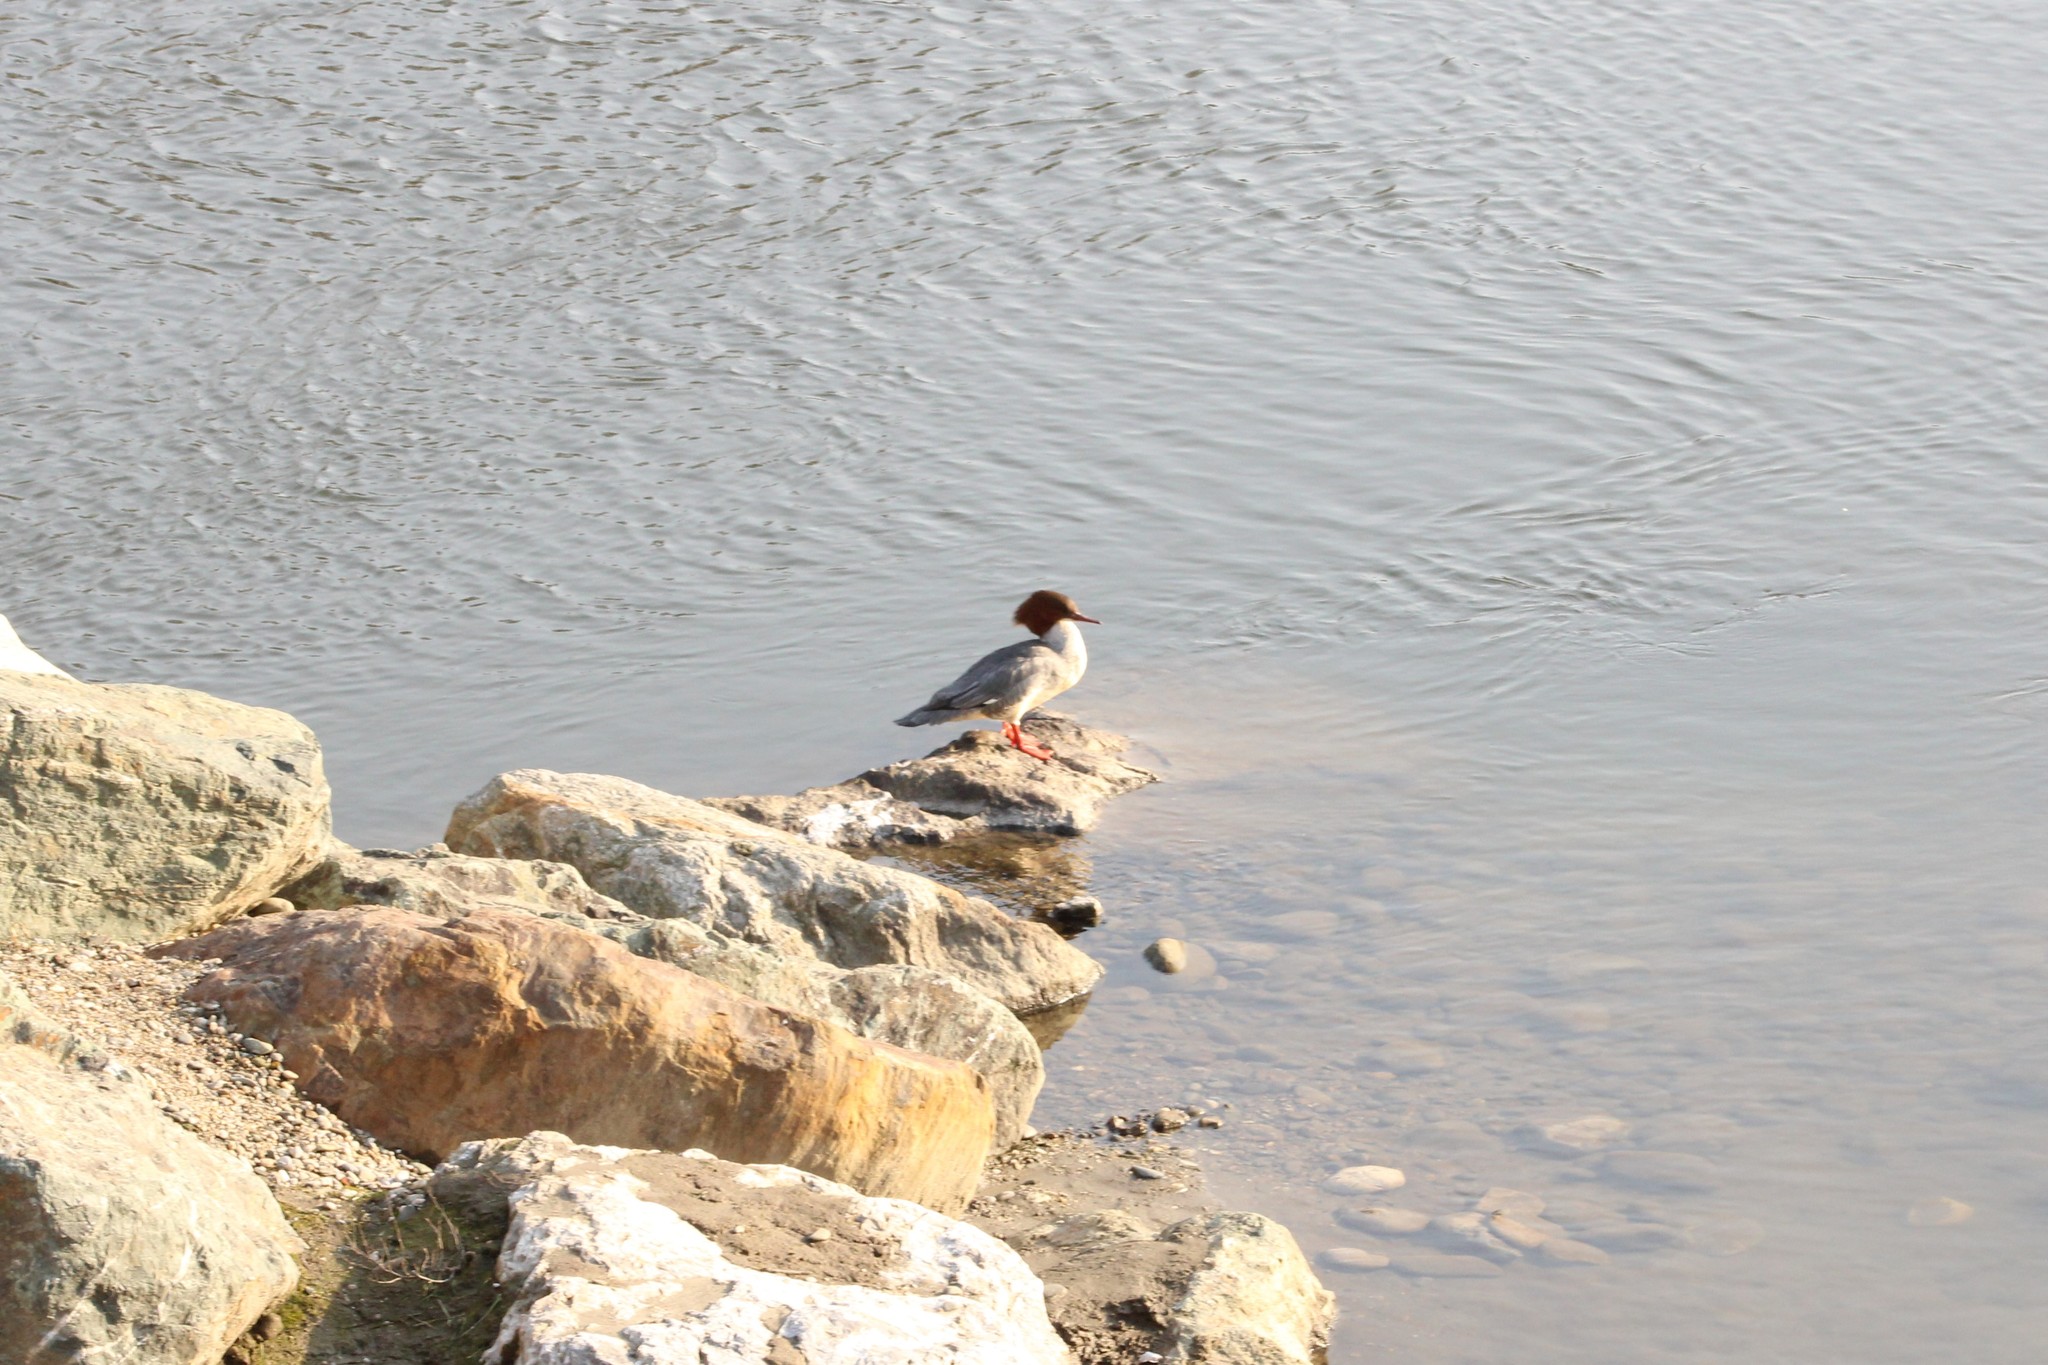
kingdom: Animalia
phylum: Chordata
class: Aves
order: Anseriformes
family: Anatidae
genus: Mergus
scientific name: Mergus merganser
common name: Common merganser
